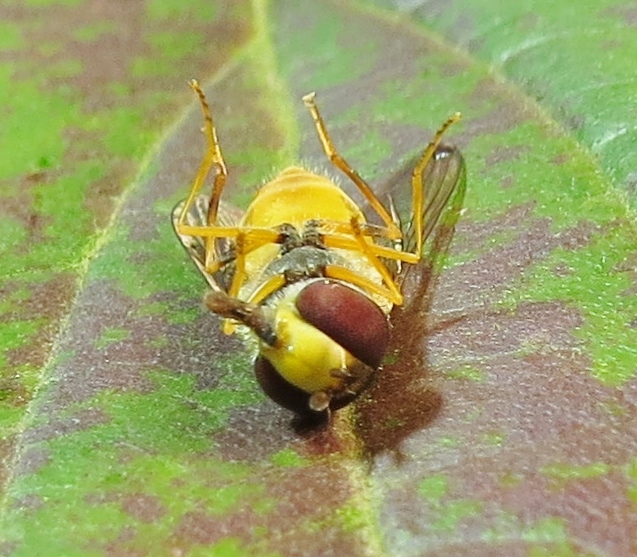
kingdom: Animalia
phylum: Arthropoda
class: Insecta
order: Diptera
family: Syrphidae
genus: Syrphus
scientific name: Syrphus rectus
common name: Yellow-legged flower fly
